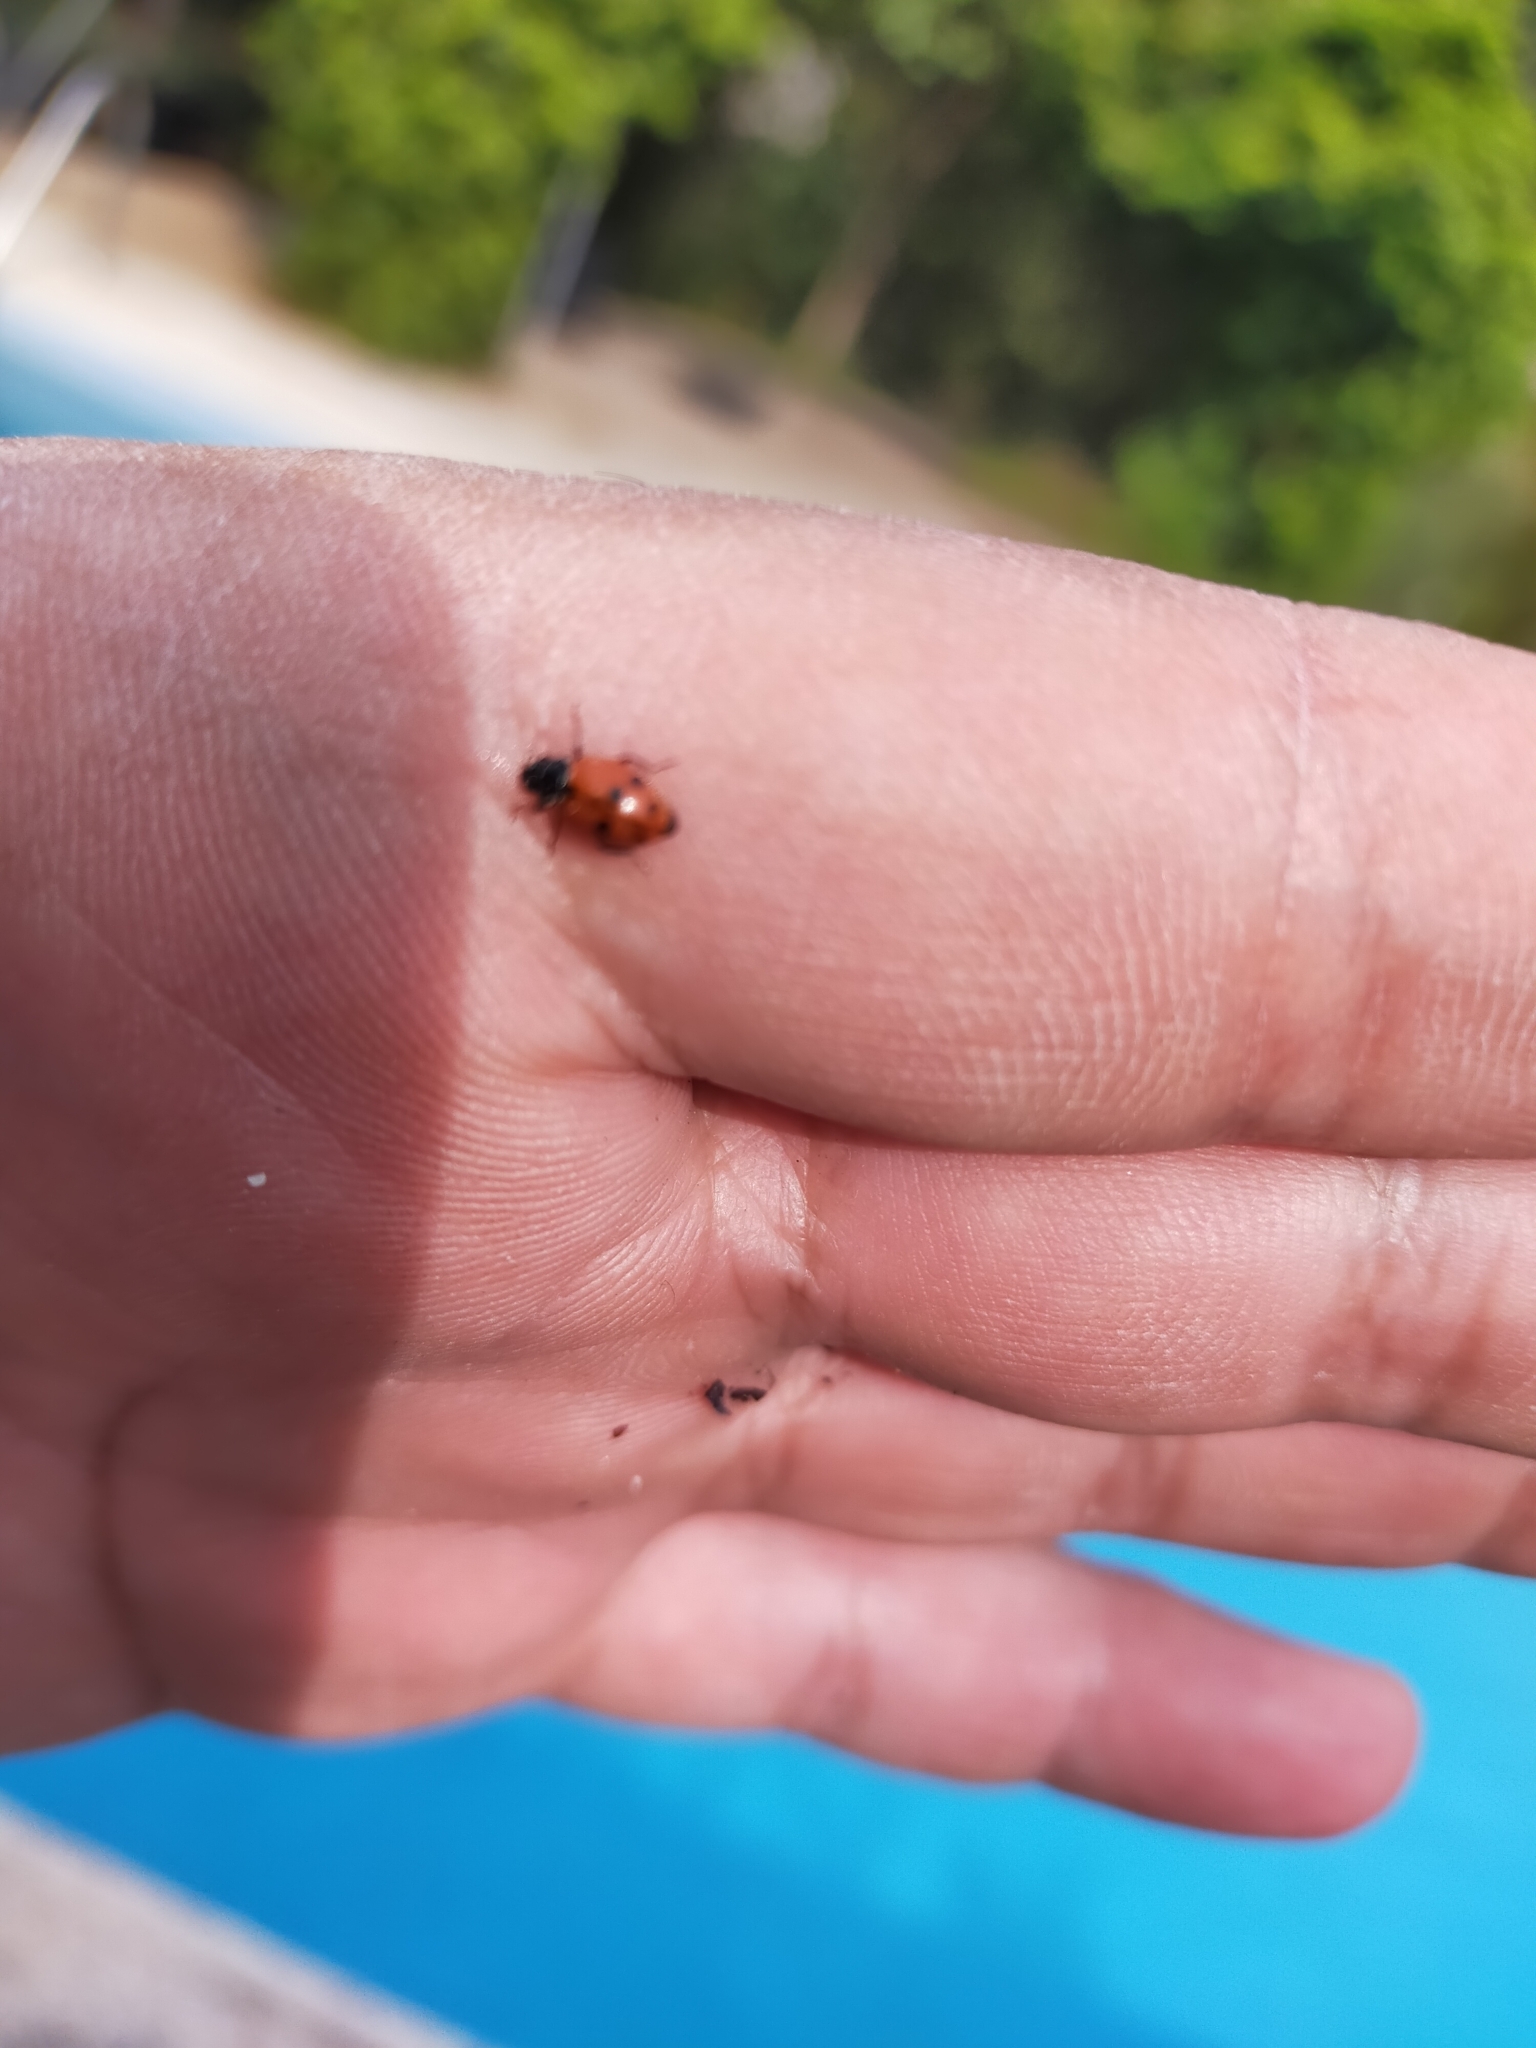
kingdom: Animalia
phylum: Arthropoda
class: Insecta
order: Coleoptera
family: Coccinellidae
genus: Hippodamia
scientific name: Hippodamia variegata
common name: Ladybird beetle
